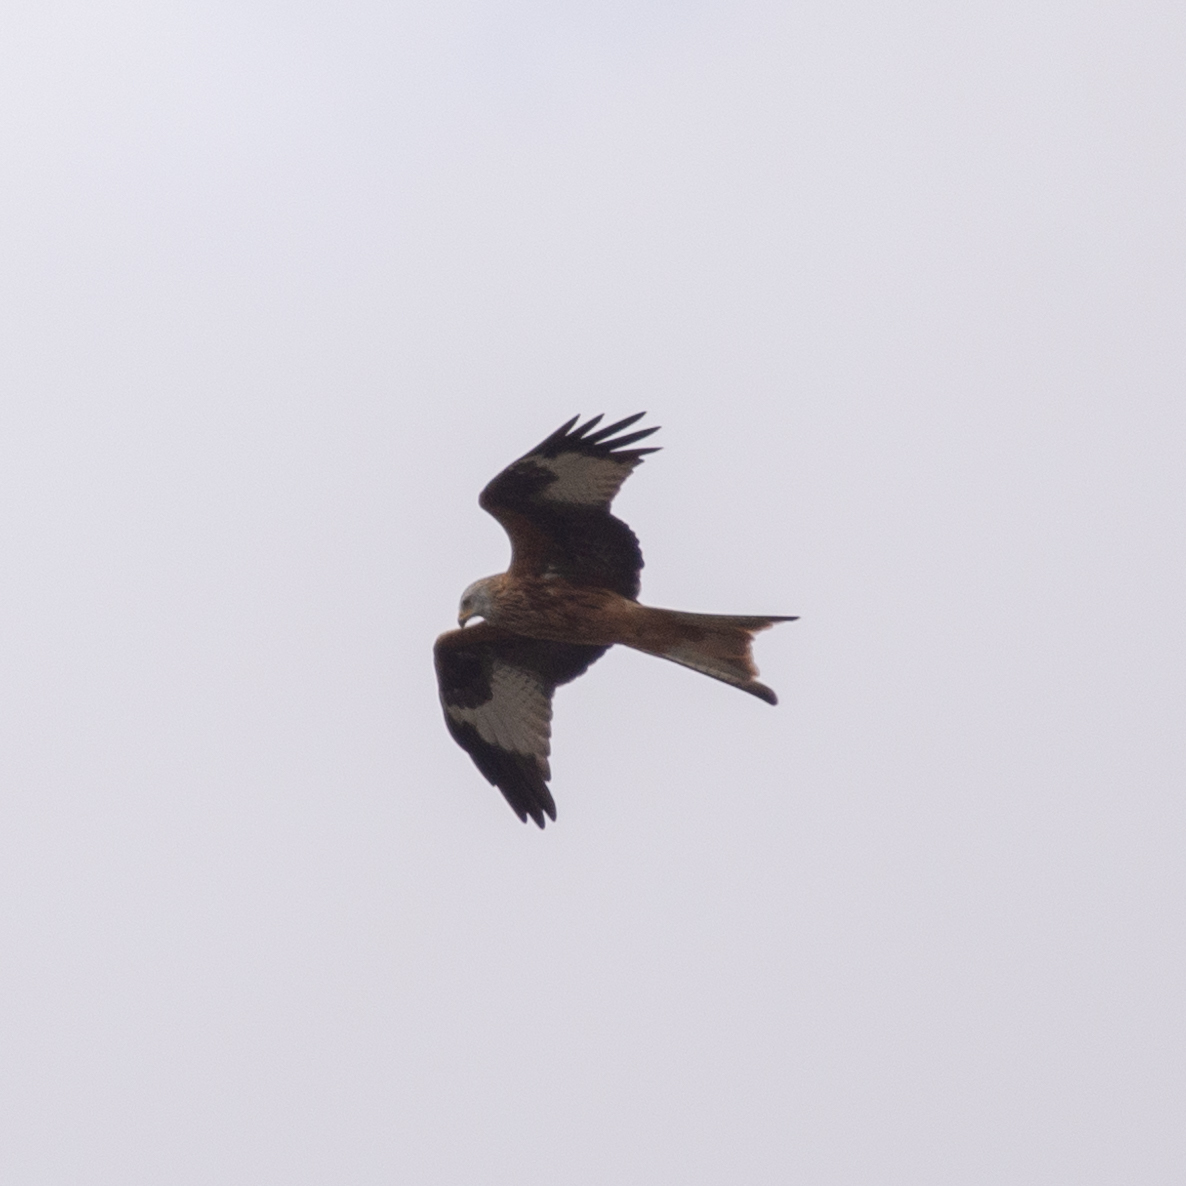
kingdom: Animalia
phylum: Chordata
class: Aves
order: Accipitriformes
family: Accipitridae
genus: Milvus
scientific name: Milvus milvus
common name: Red kite
